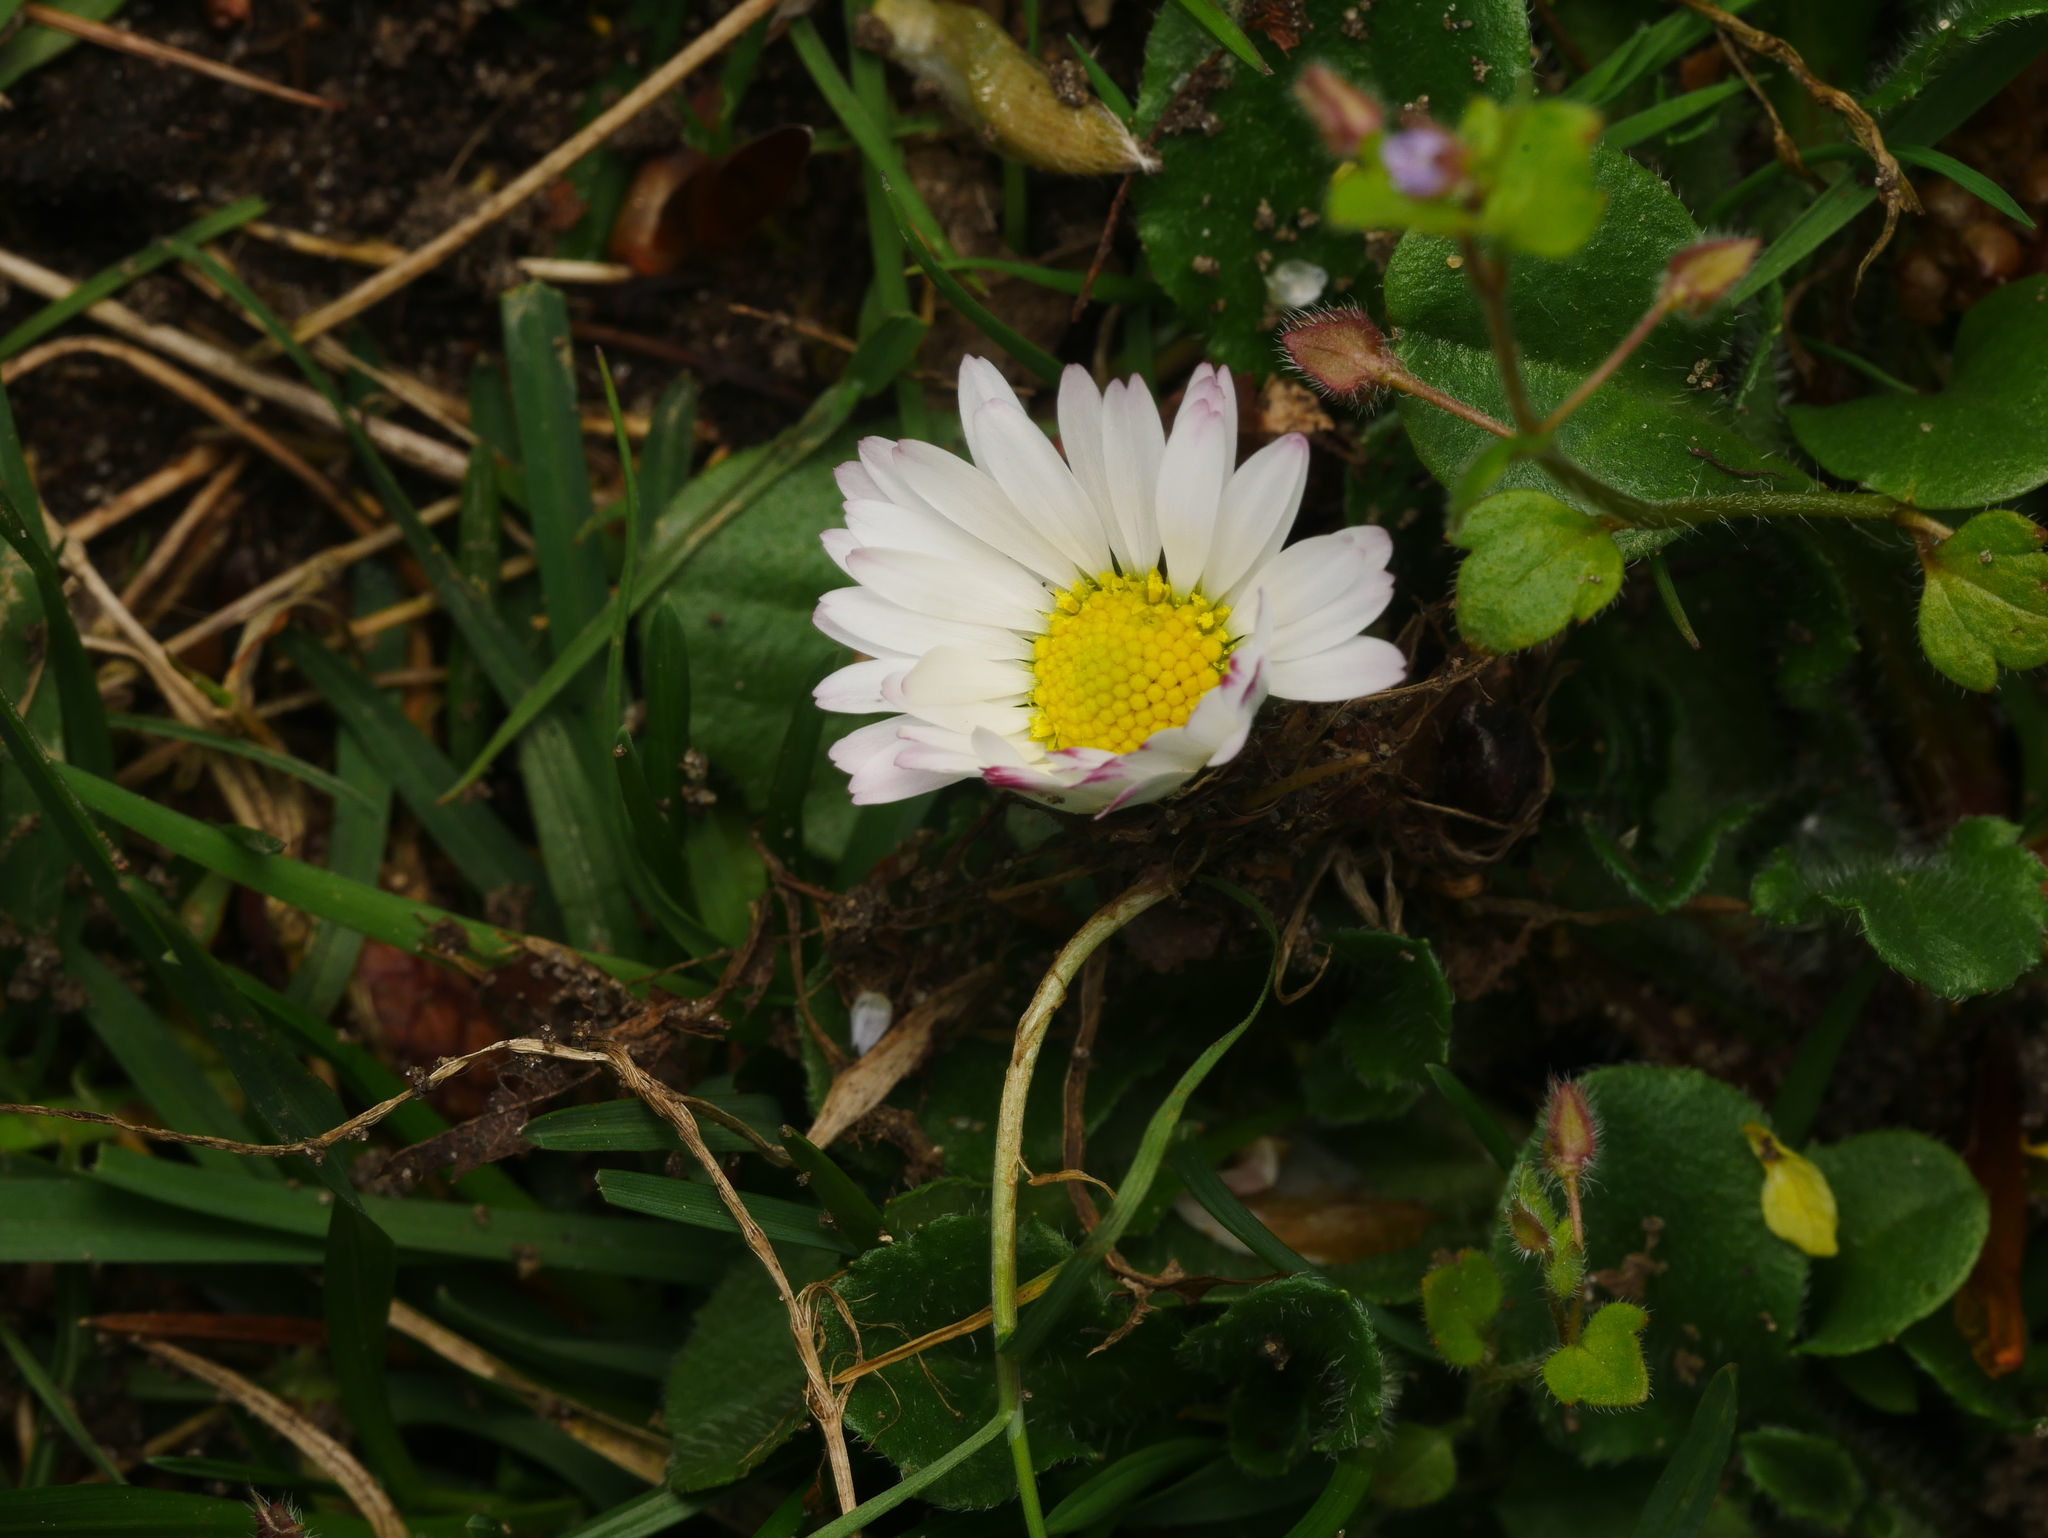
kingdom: Plantae
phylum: Tracheophyta
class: Magnoliopsida
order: Asterales
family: Asteraceae
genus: Bellis
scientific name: Bellis perennis
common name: Lawndaisy
